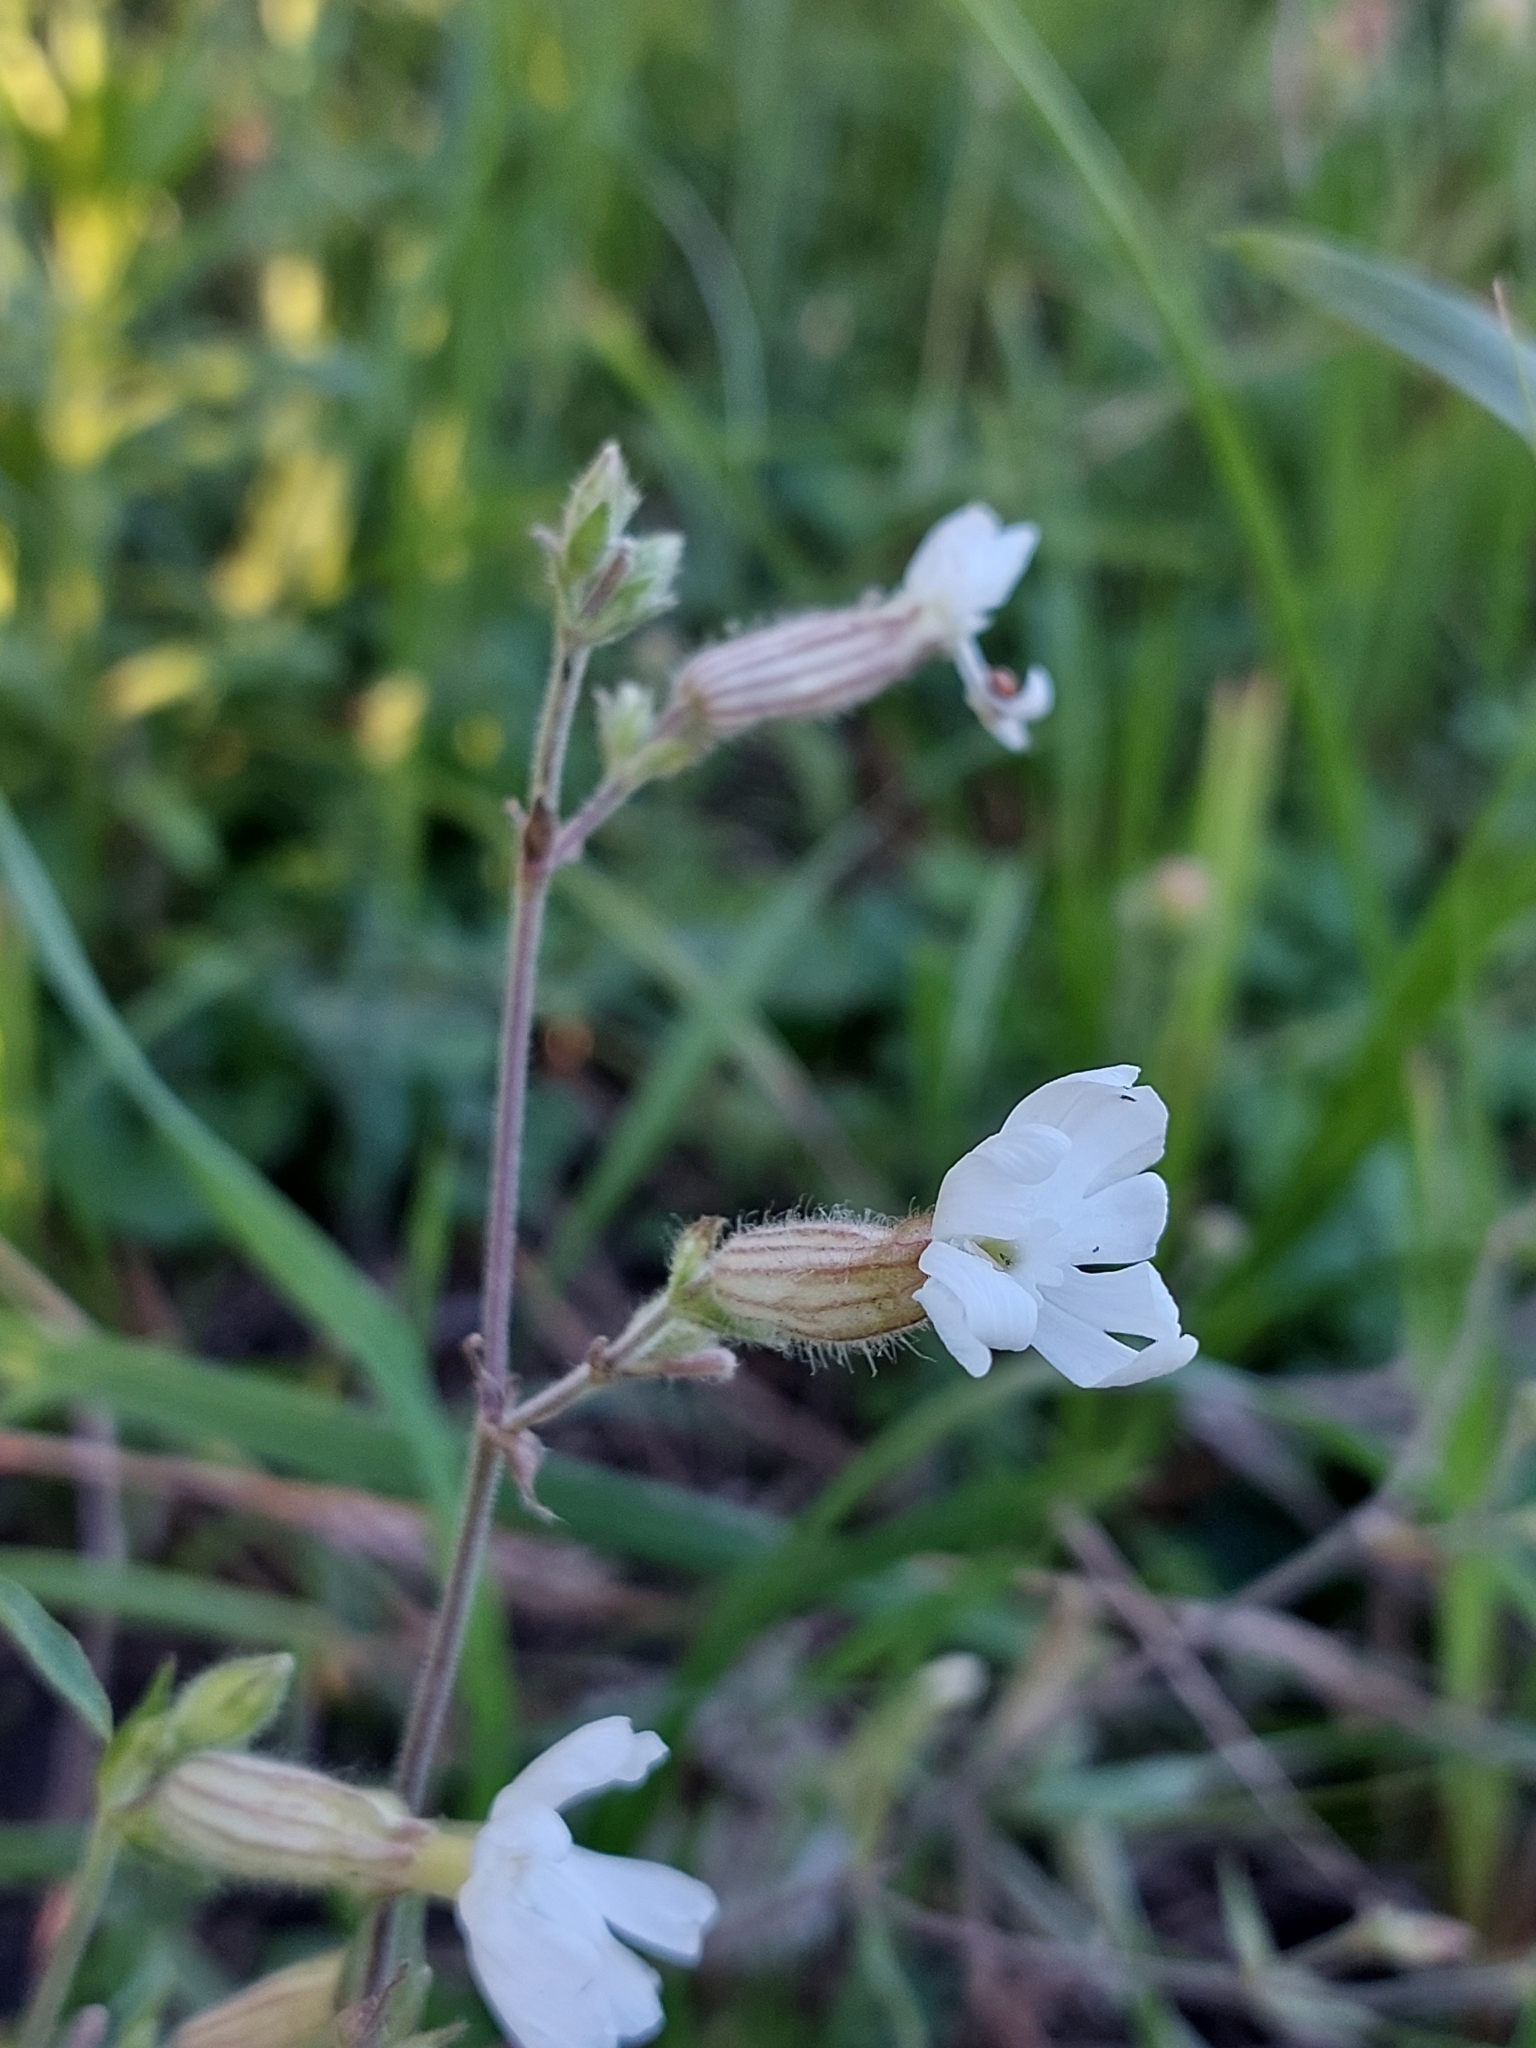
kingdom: Plantae
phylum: Tracheophyta
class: Magnoliopsida
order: Caryophyllales
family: Caryophyllaceae
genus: Silene
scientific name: Silene latifolia
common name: White campion
